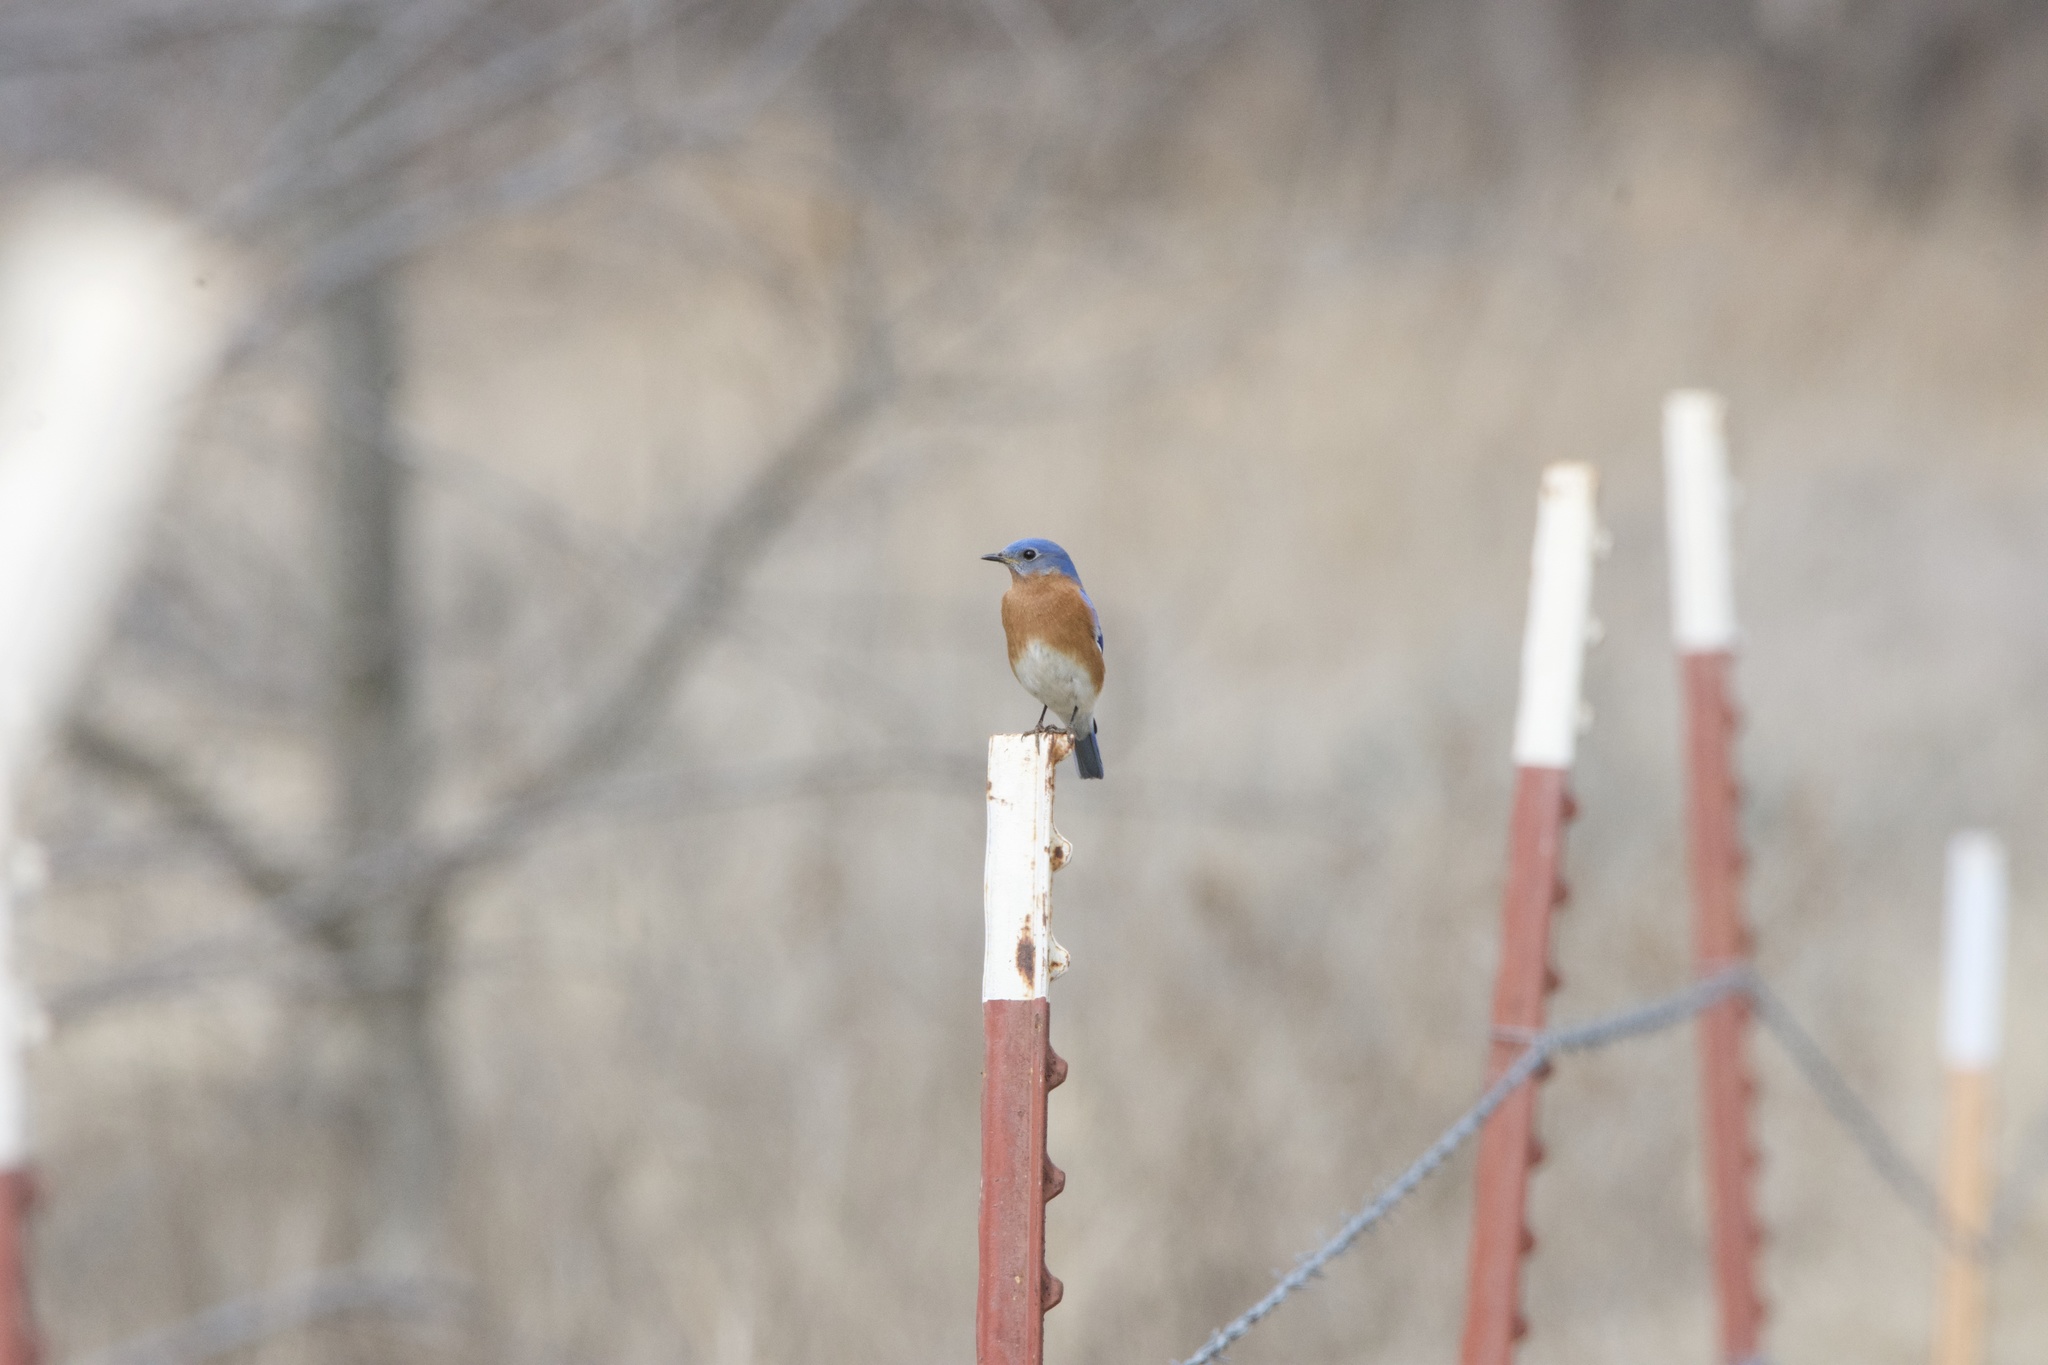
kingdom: Animalia
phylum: Chordata
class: Aves
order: Passeriformes
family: Turdidae
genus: Sialia
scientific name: Sialia sialis
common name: Eastern bluebird
